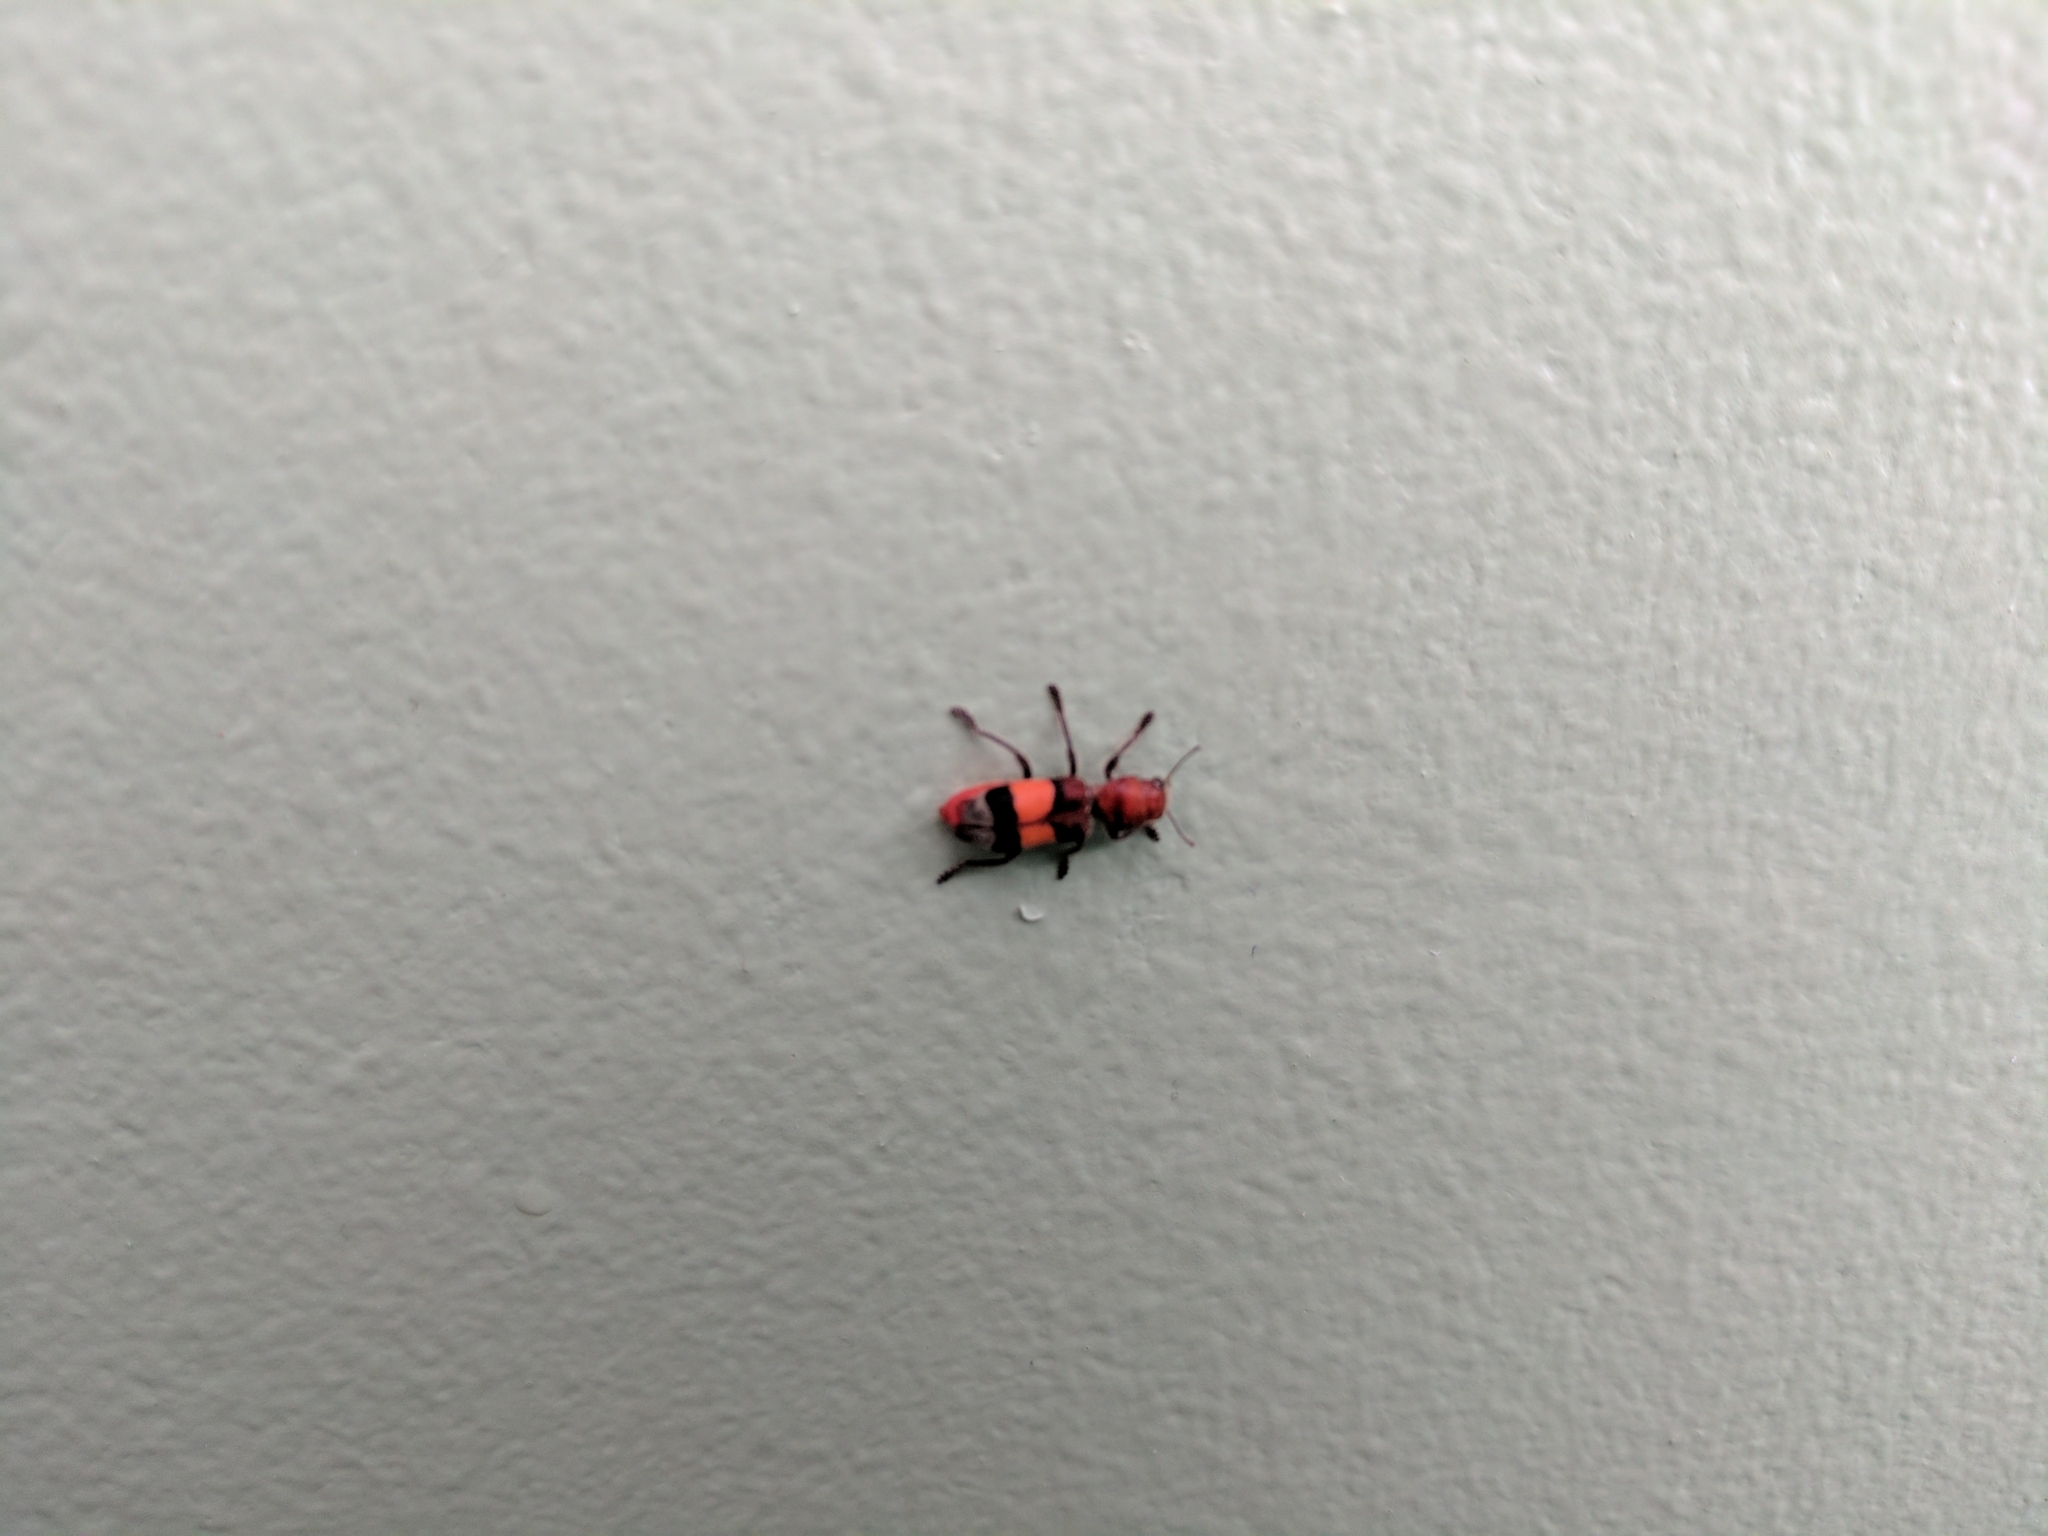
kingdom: Animalia
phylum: Arthropoda
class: Insecta
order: Coleoptera
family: Cleridae
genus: Enoclerus
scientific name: Enoclerus ichneumoneus
